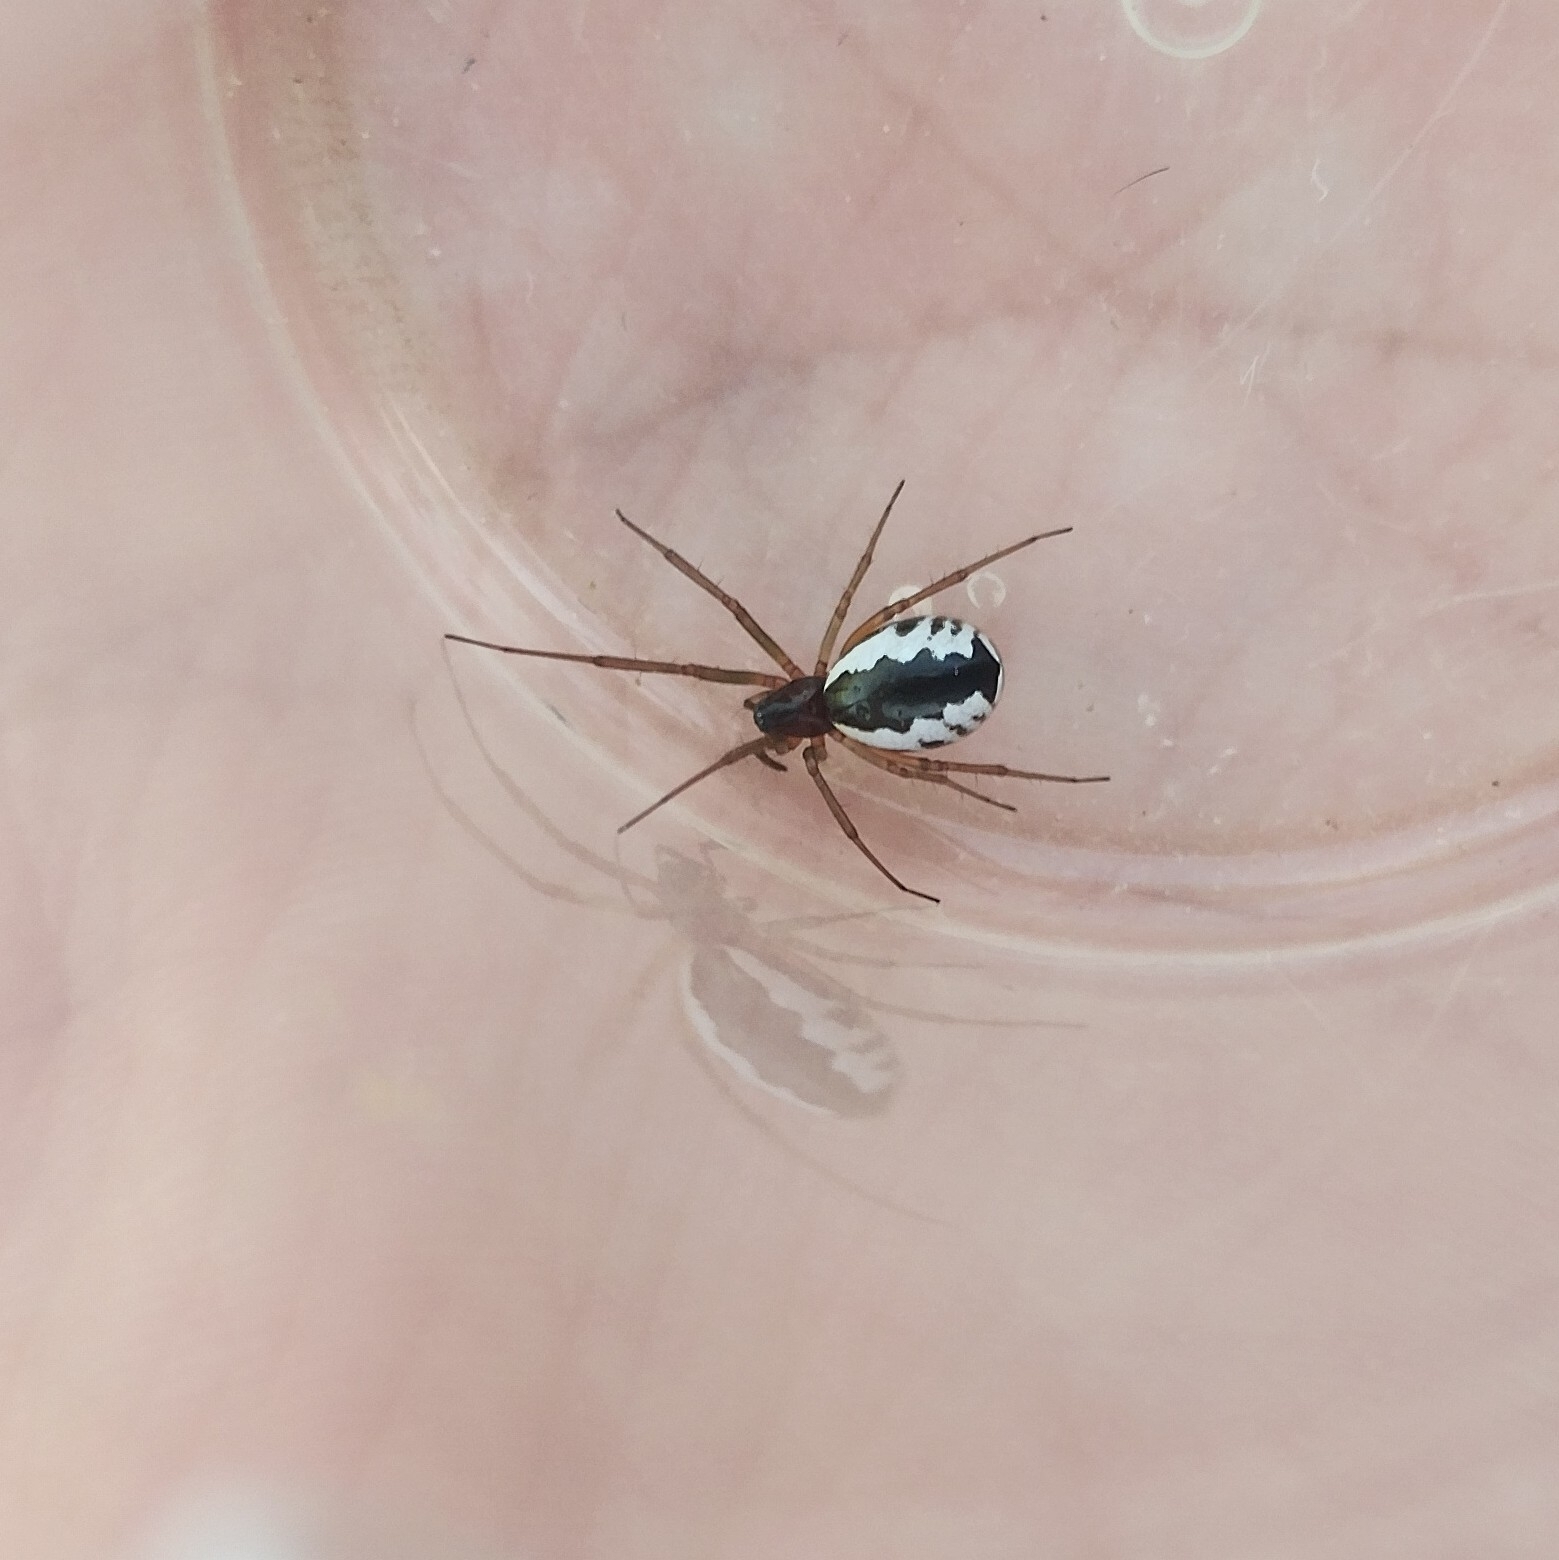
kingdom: Animalia
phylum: Arthropoda
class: Arachnida
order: Araneae
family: Linyphiidae
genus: Frontinellina
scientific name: Frontinellina frutetorum
